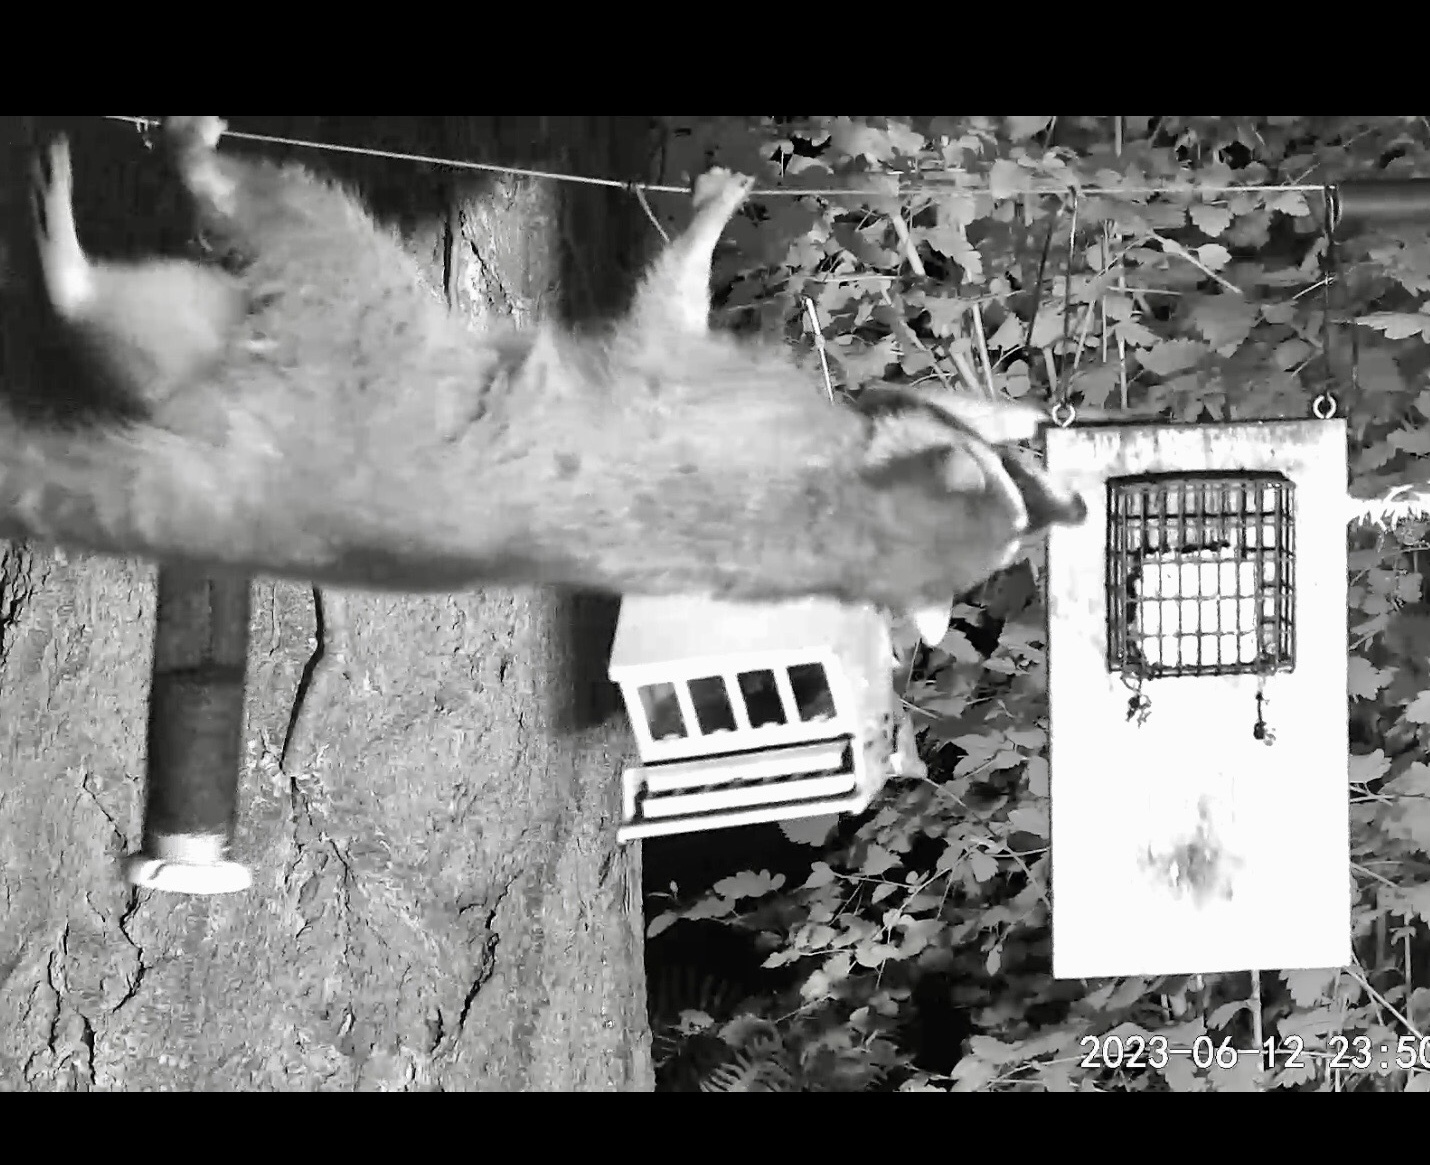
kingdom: Animalia
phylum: Chordata
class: Mammalia
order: Carnivora
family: Procyonidae
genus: Procyon
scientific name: Procyon lotor
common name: Raccoon
